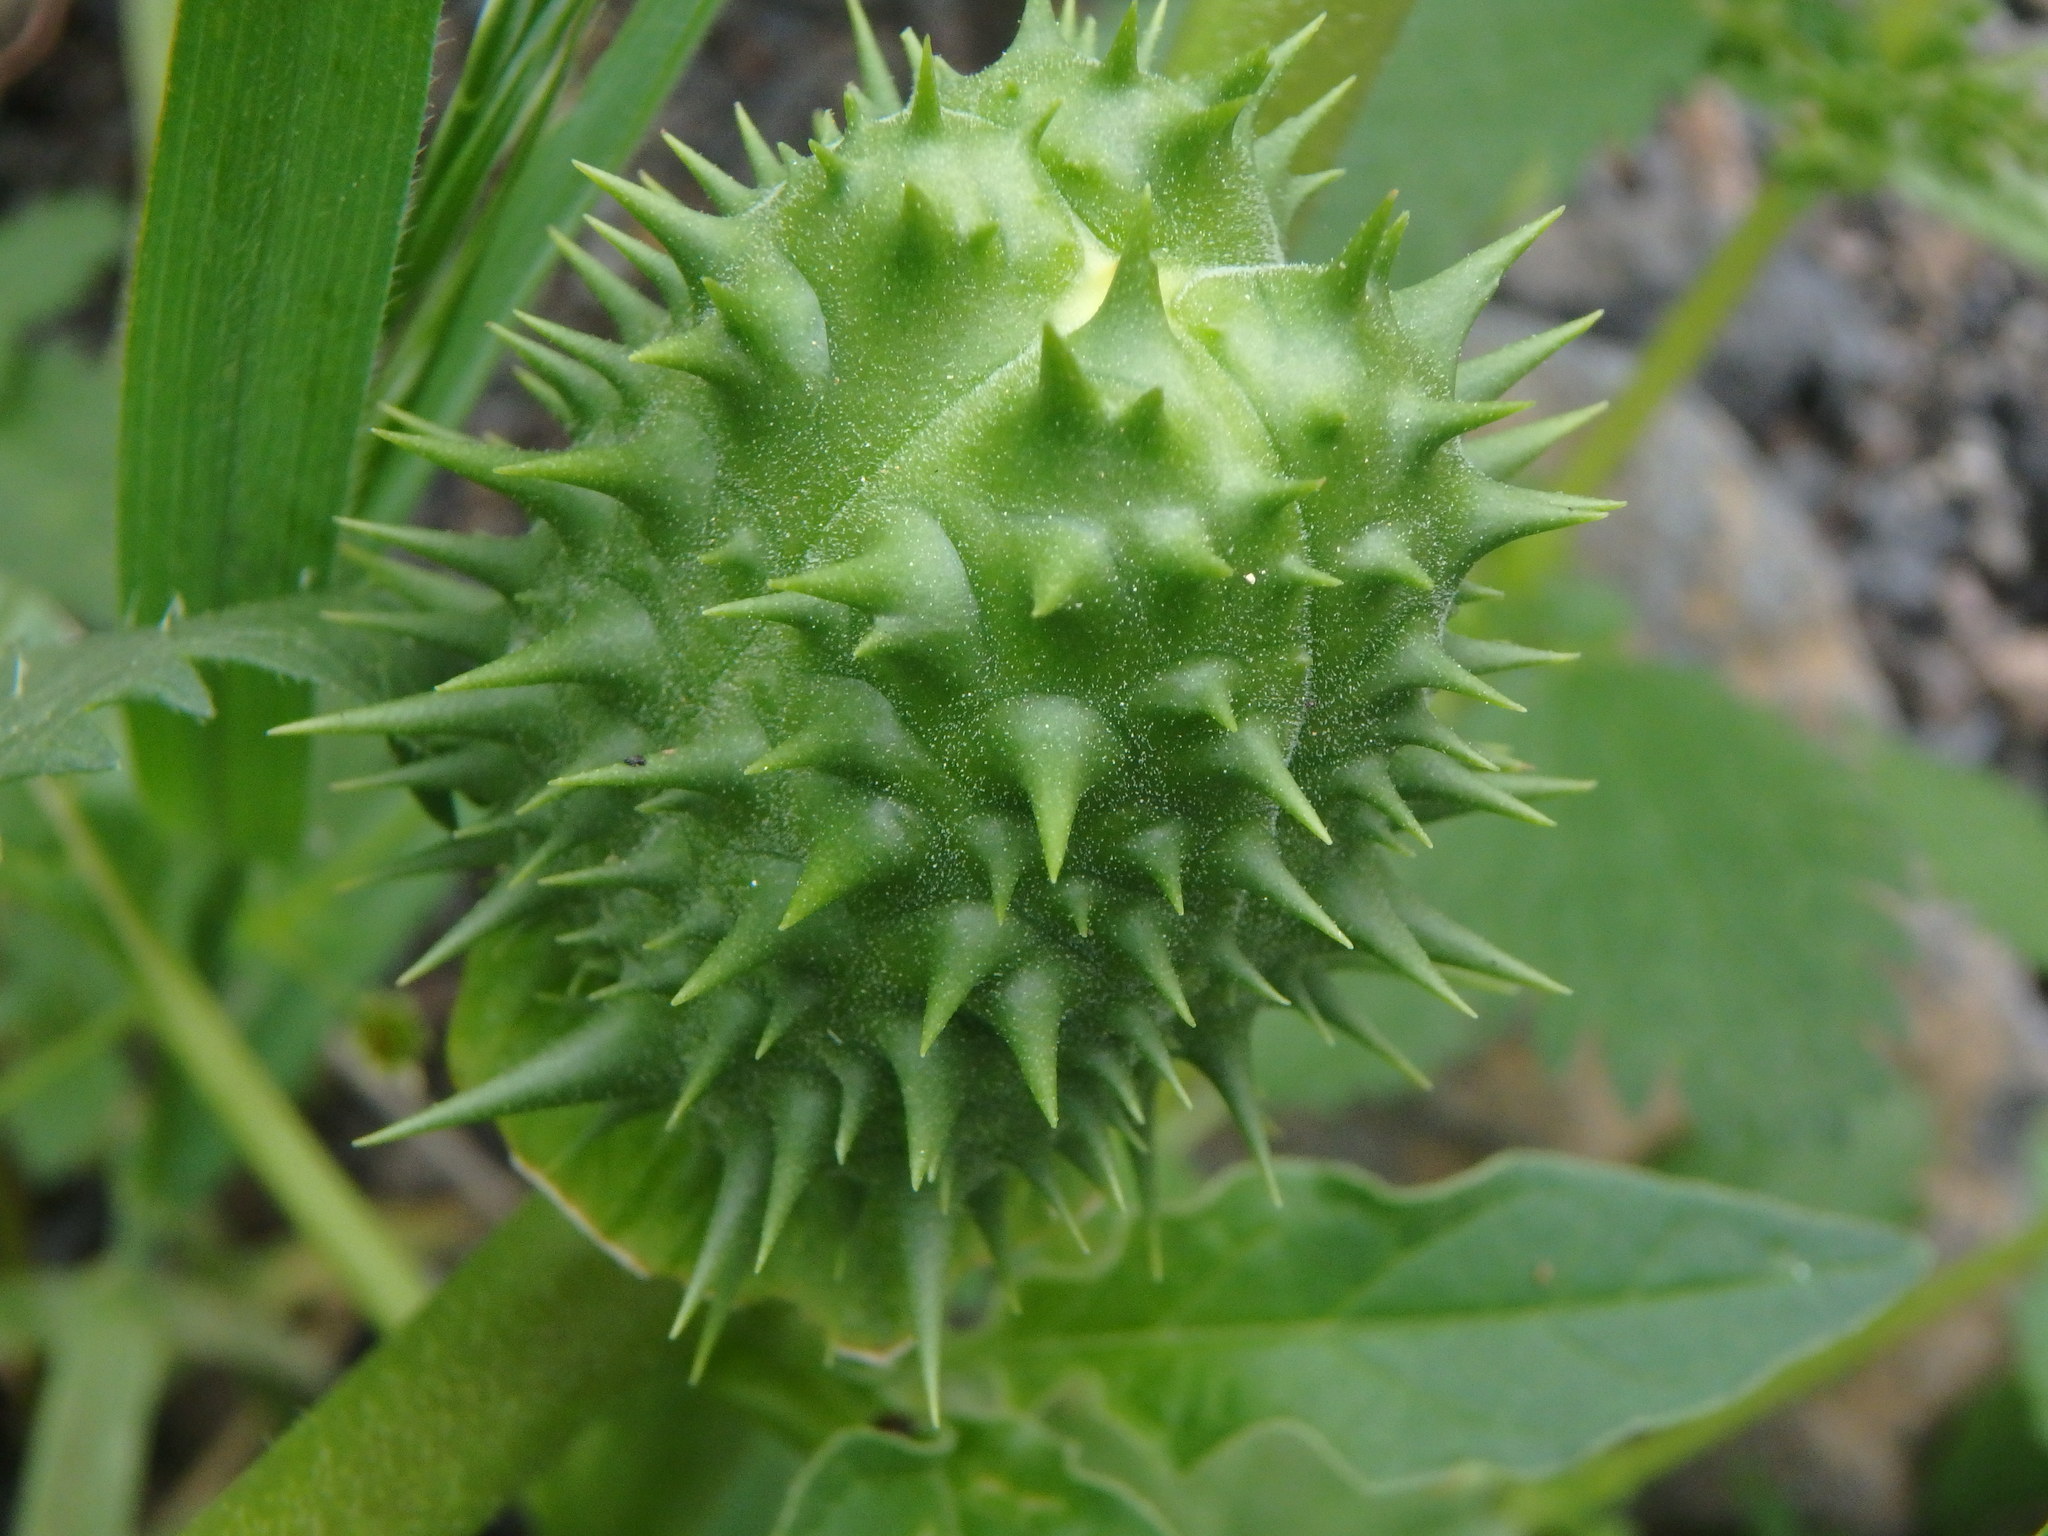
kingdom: Plantae
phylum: Tracheophyta
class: Magnoliopsida
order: Solanales
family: Solanaceae
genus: Datura
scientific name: Datura stramonium
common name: Thorn-apple
